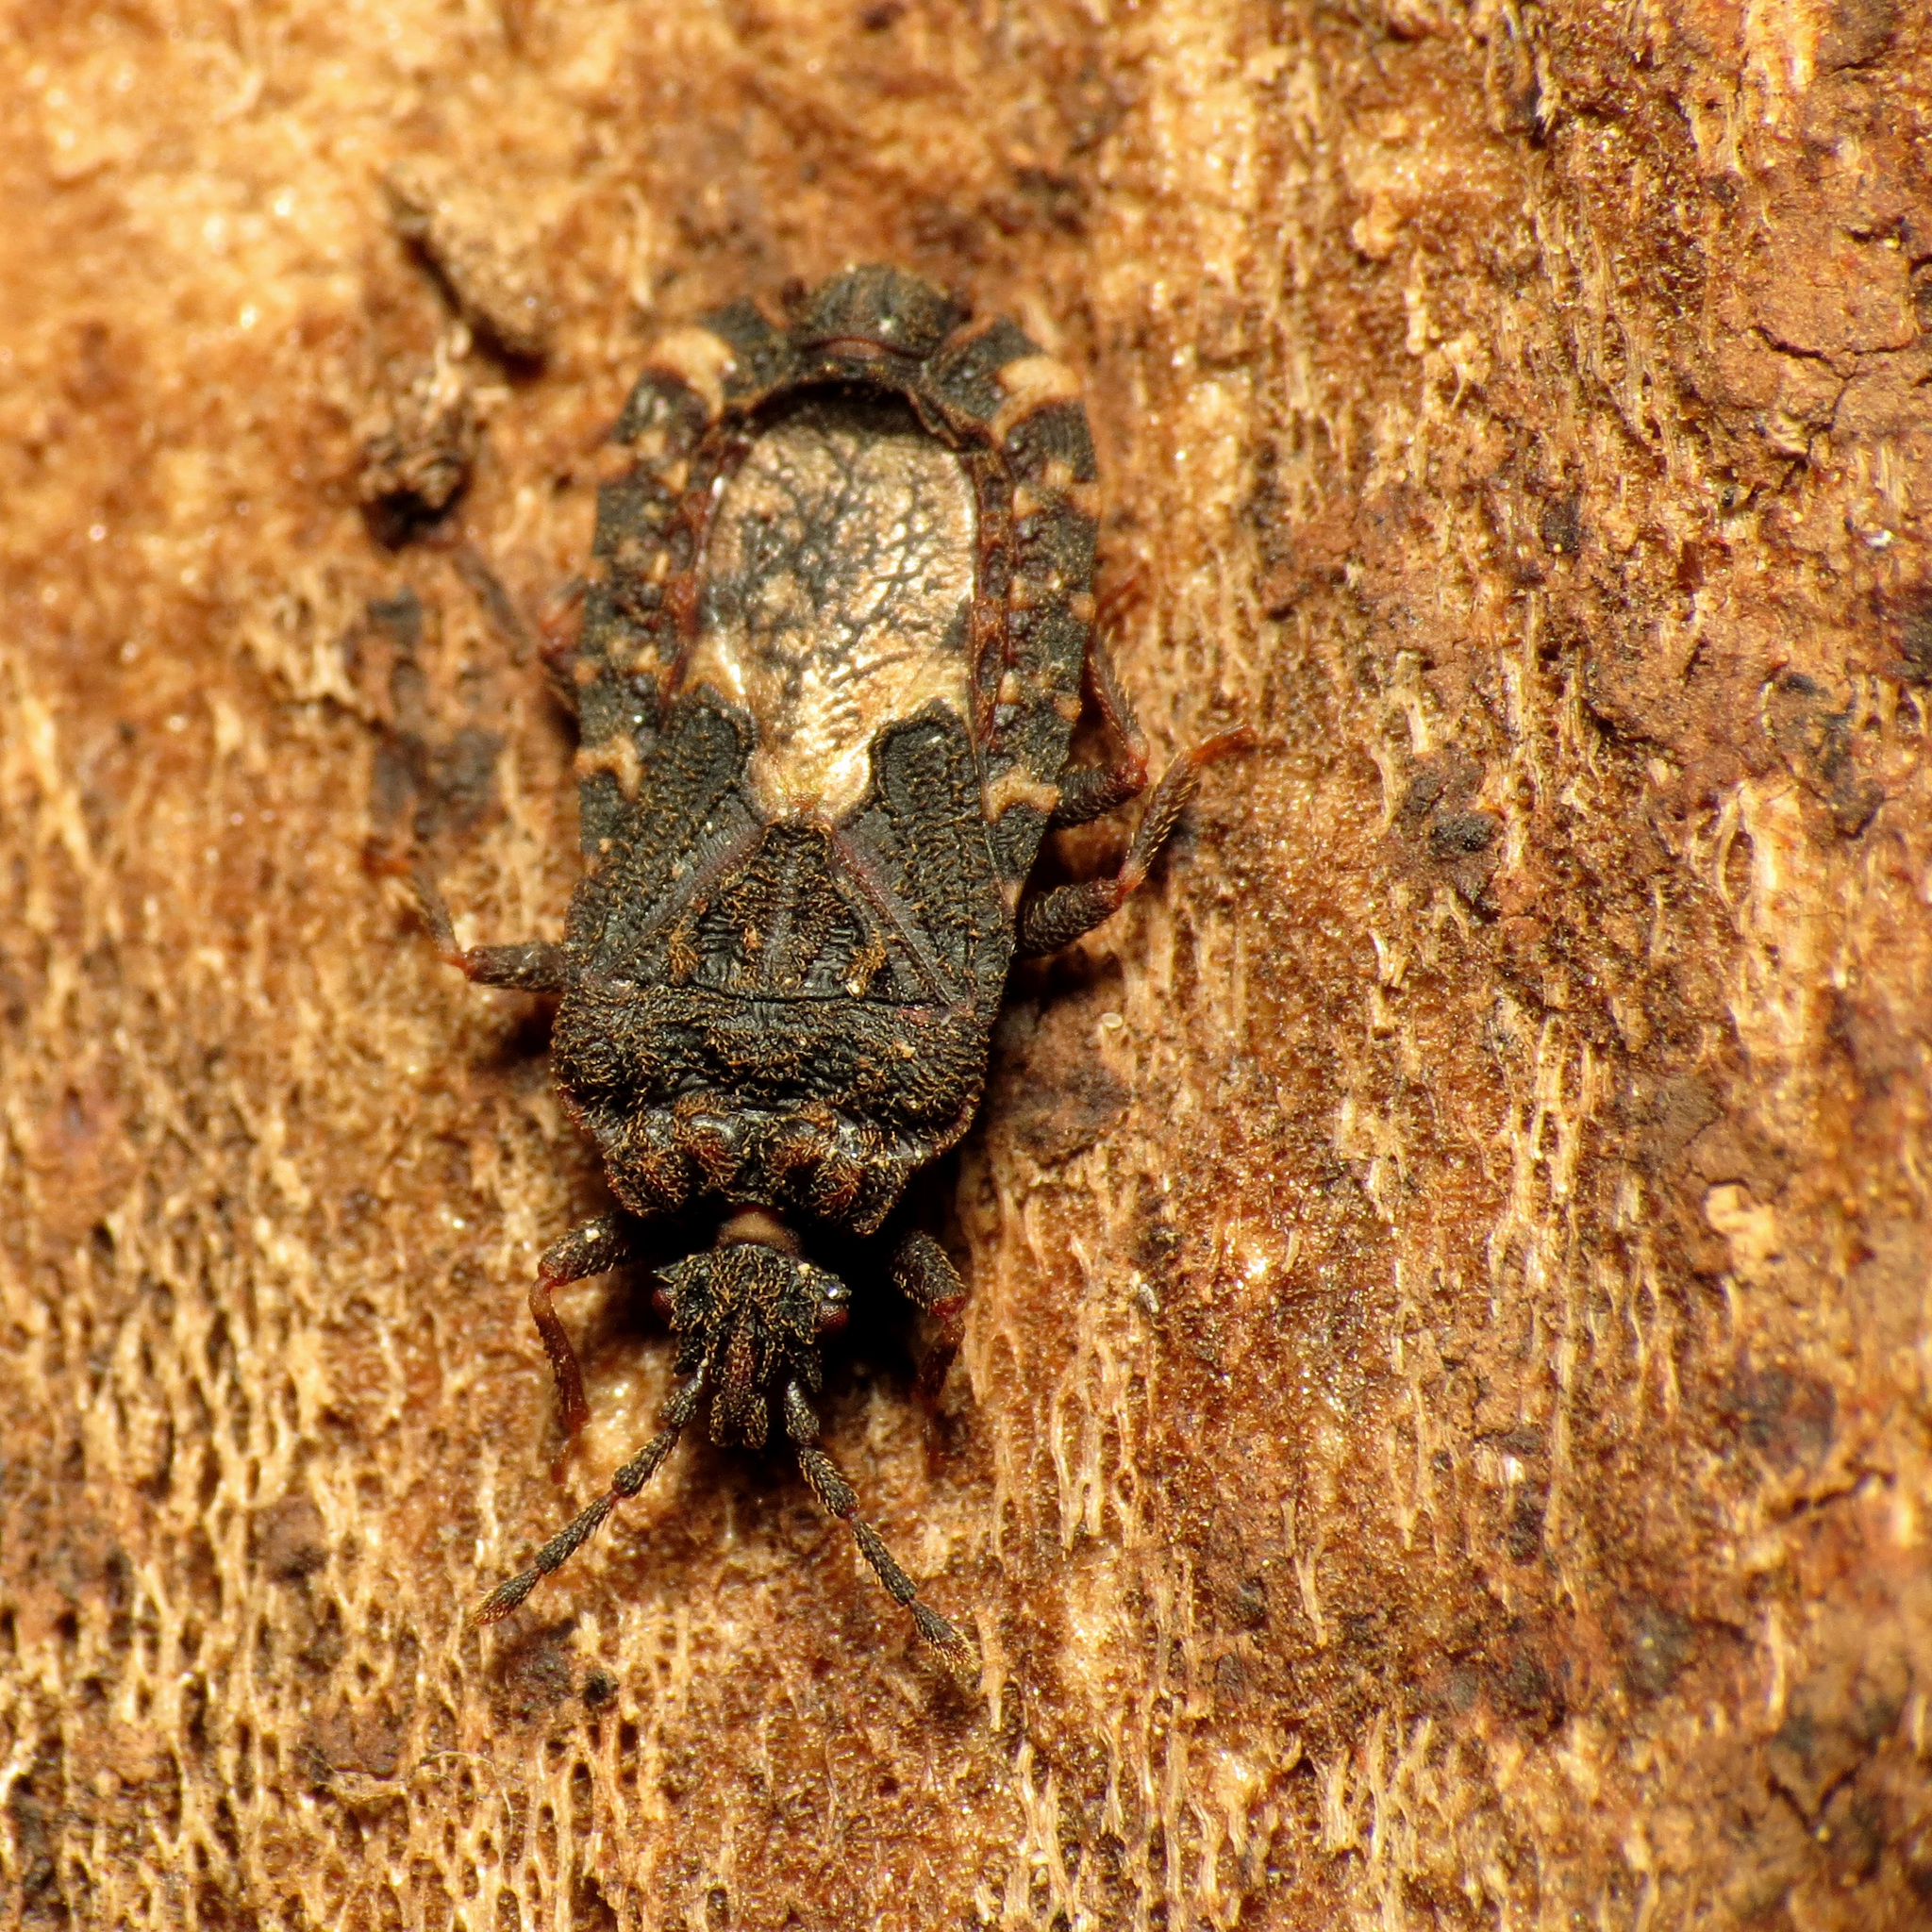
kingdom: Animalia
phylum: Arthropoda
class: Insecta
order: Hemiptera
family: Aradidae
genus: Mezira
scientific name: Mezira
